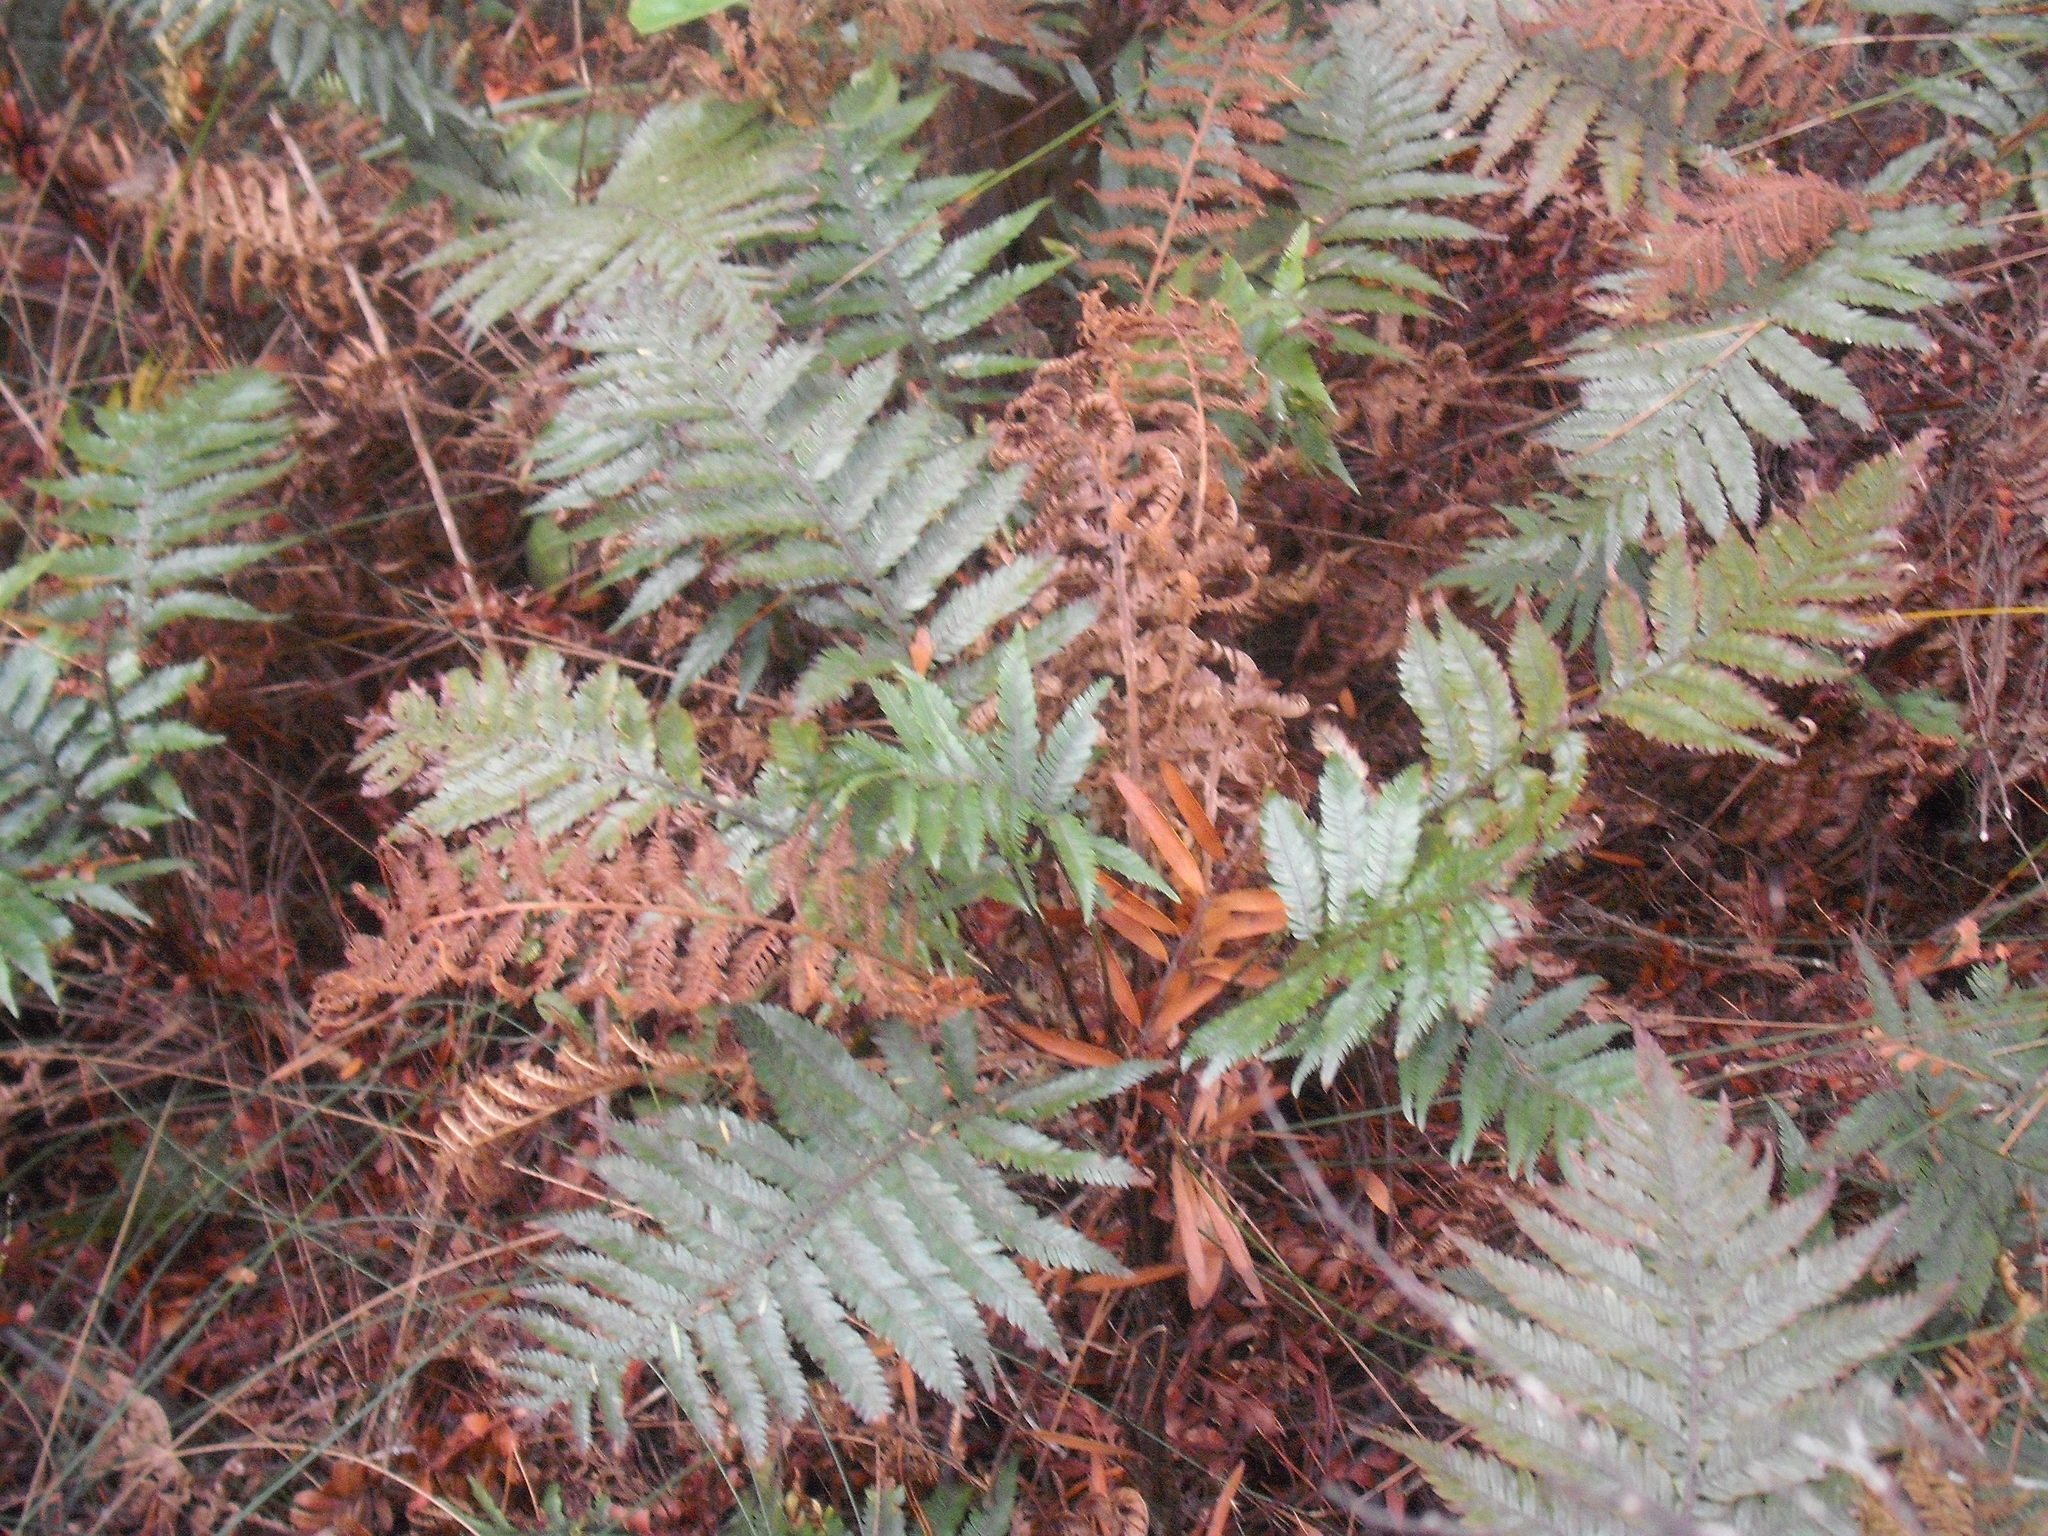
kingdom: Plantae
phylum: Tracheophyta
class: Polypodiopsida
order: Polypodiales
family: Blechnaceae
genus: Diploblechnum
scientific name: Diploblechnum fraseri
